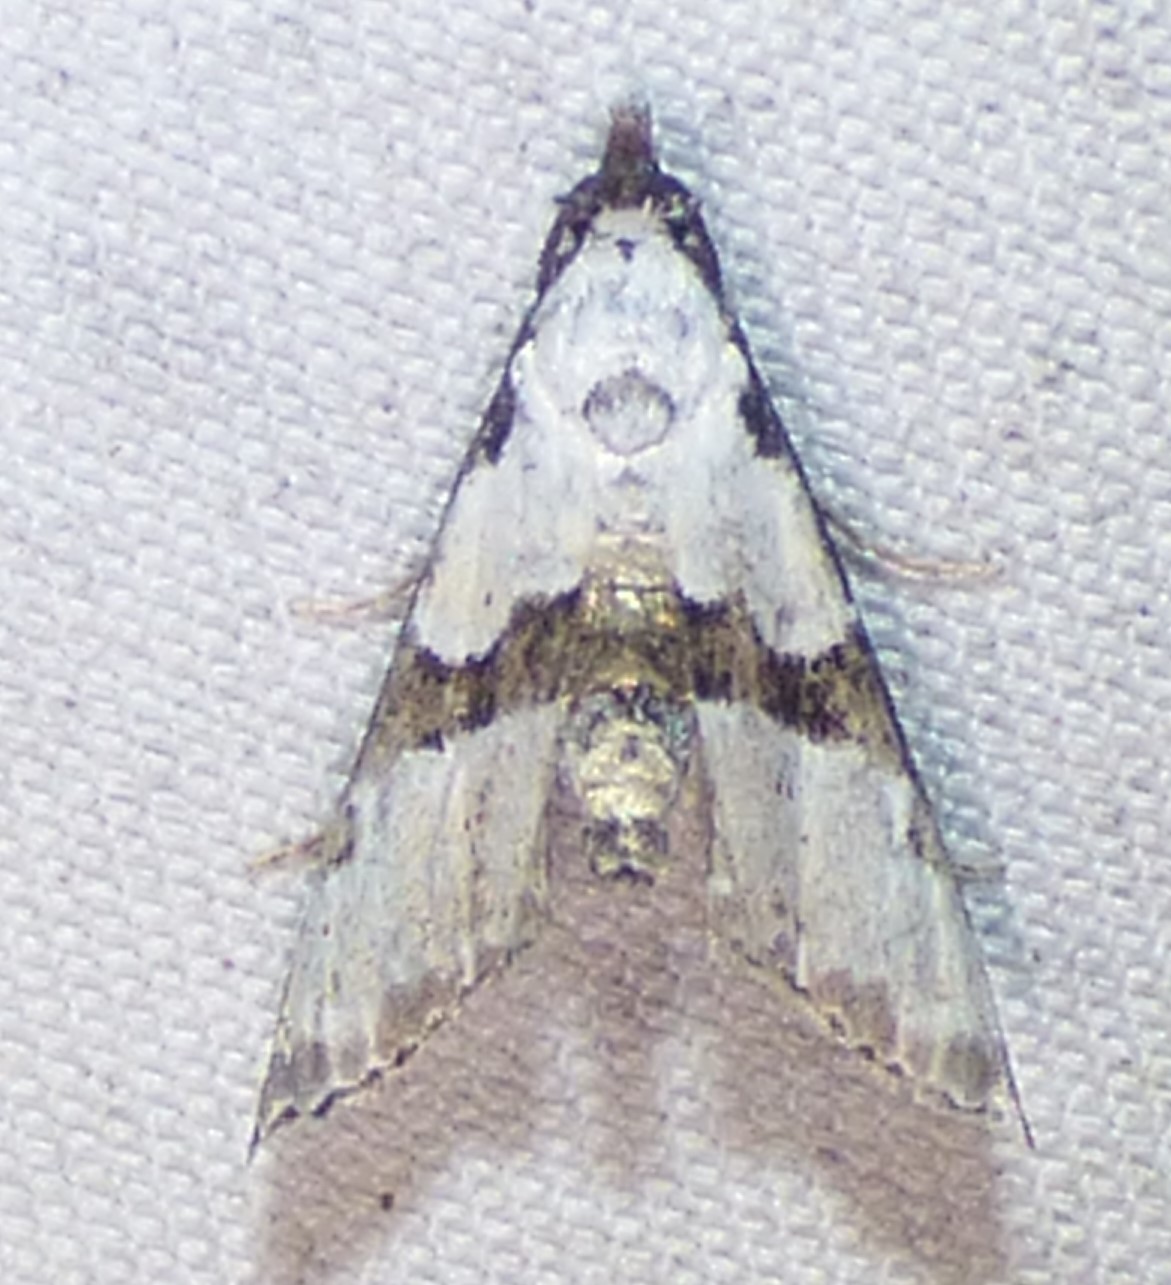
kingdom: Animalia
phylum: Arthropoda
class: Insecta
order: Lepidoptera
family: Noctuidae
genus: Nigetia
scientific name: Nigetia formosalis
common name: Thin-winged owlet
